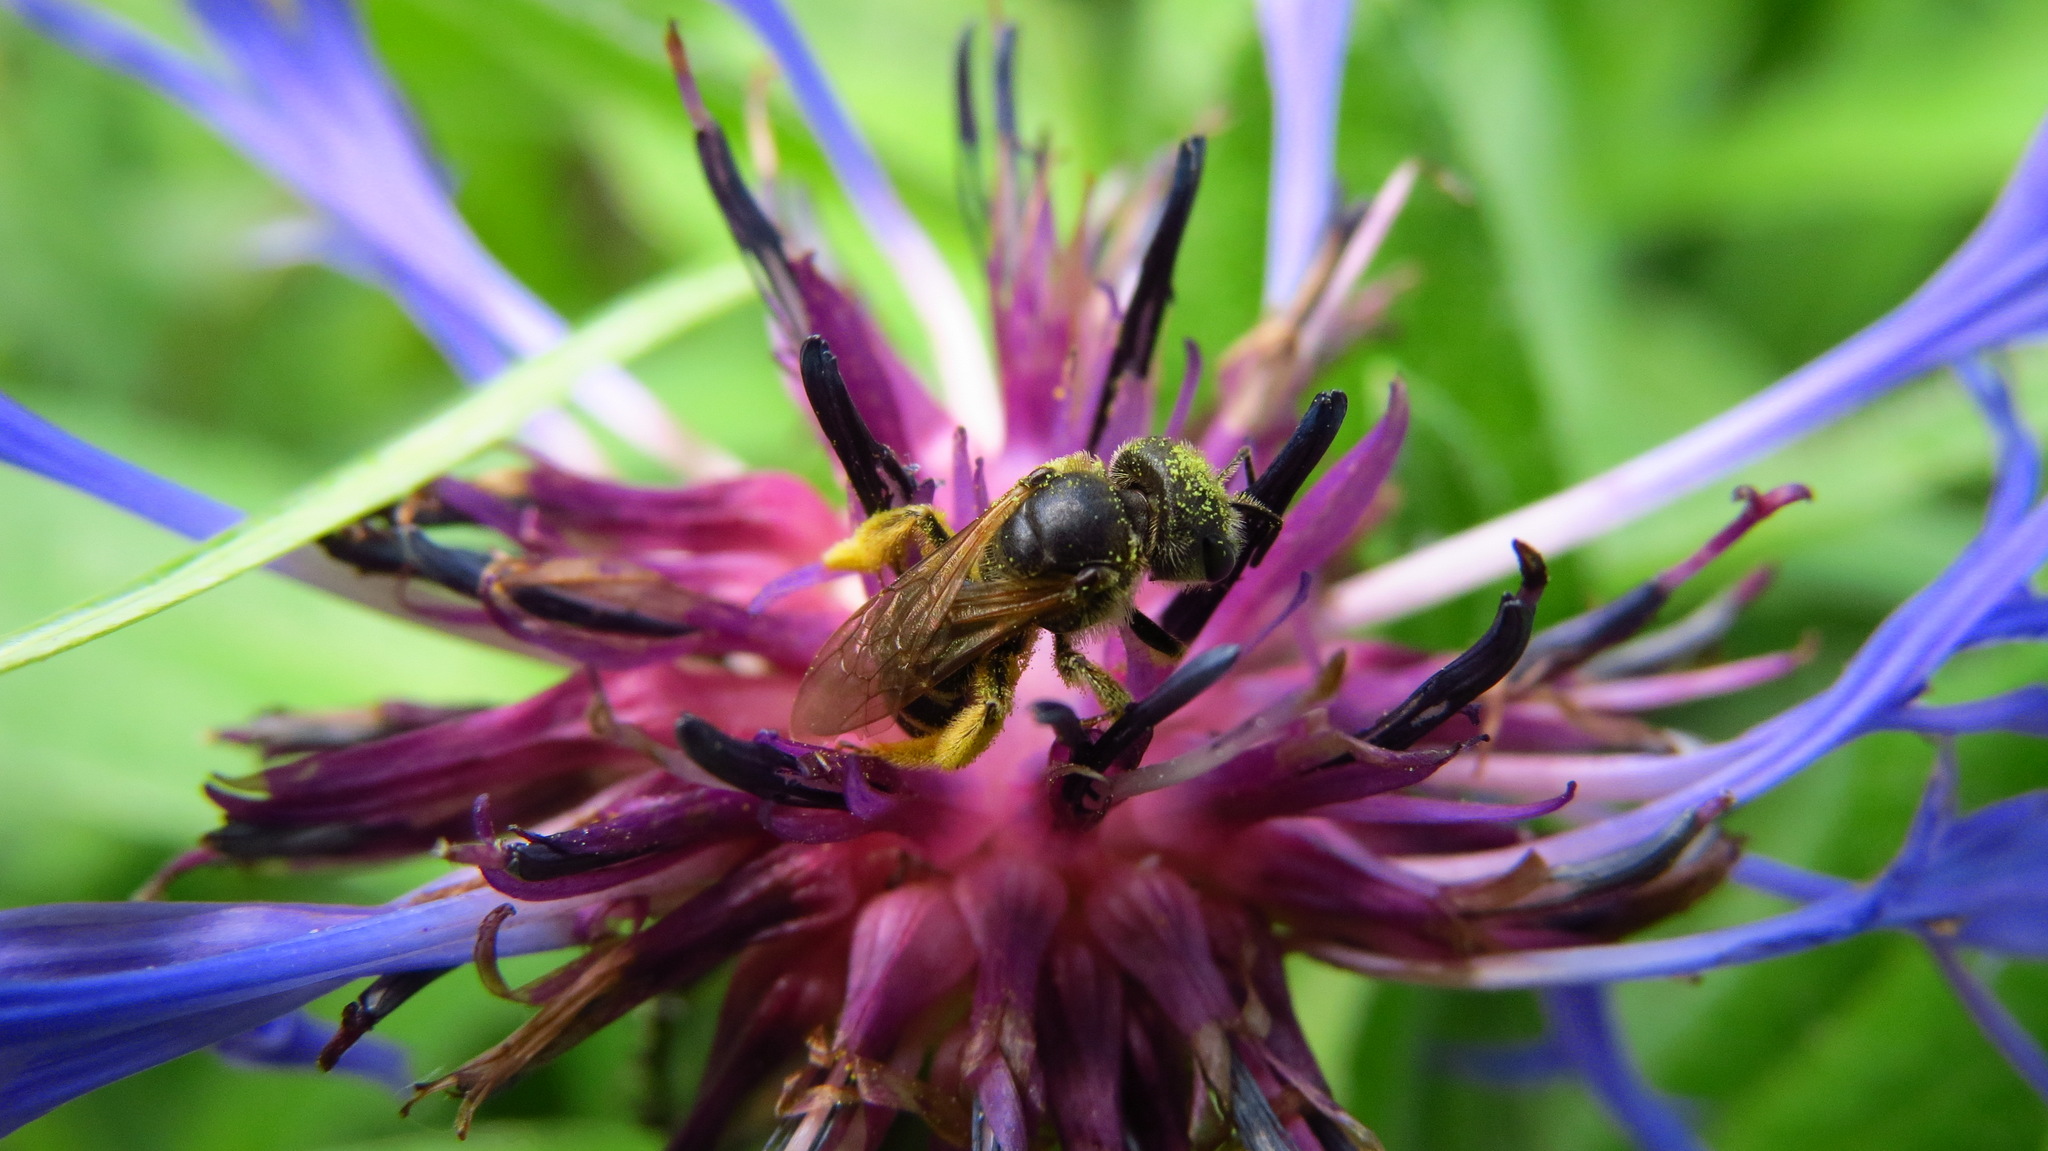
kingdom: Animalia
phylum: Arthropoda
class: Insecta
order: Hymenoptera
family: Halictidae
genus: Halictus
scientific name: Halictus ligatus
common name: Ligated furrow bee
